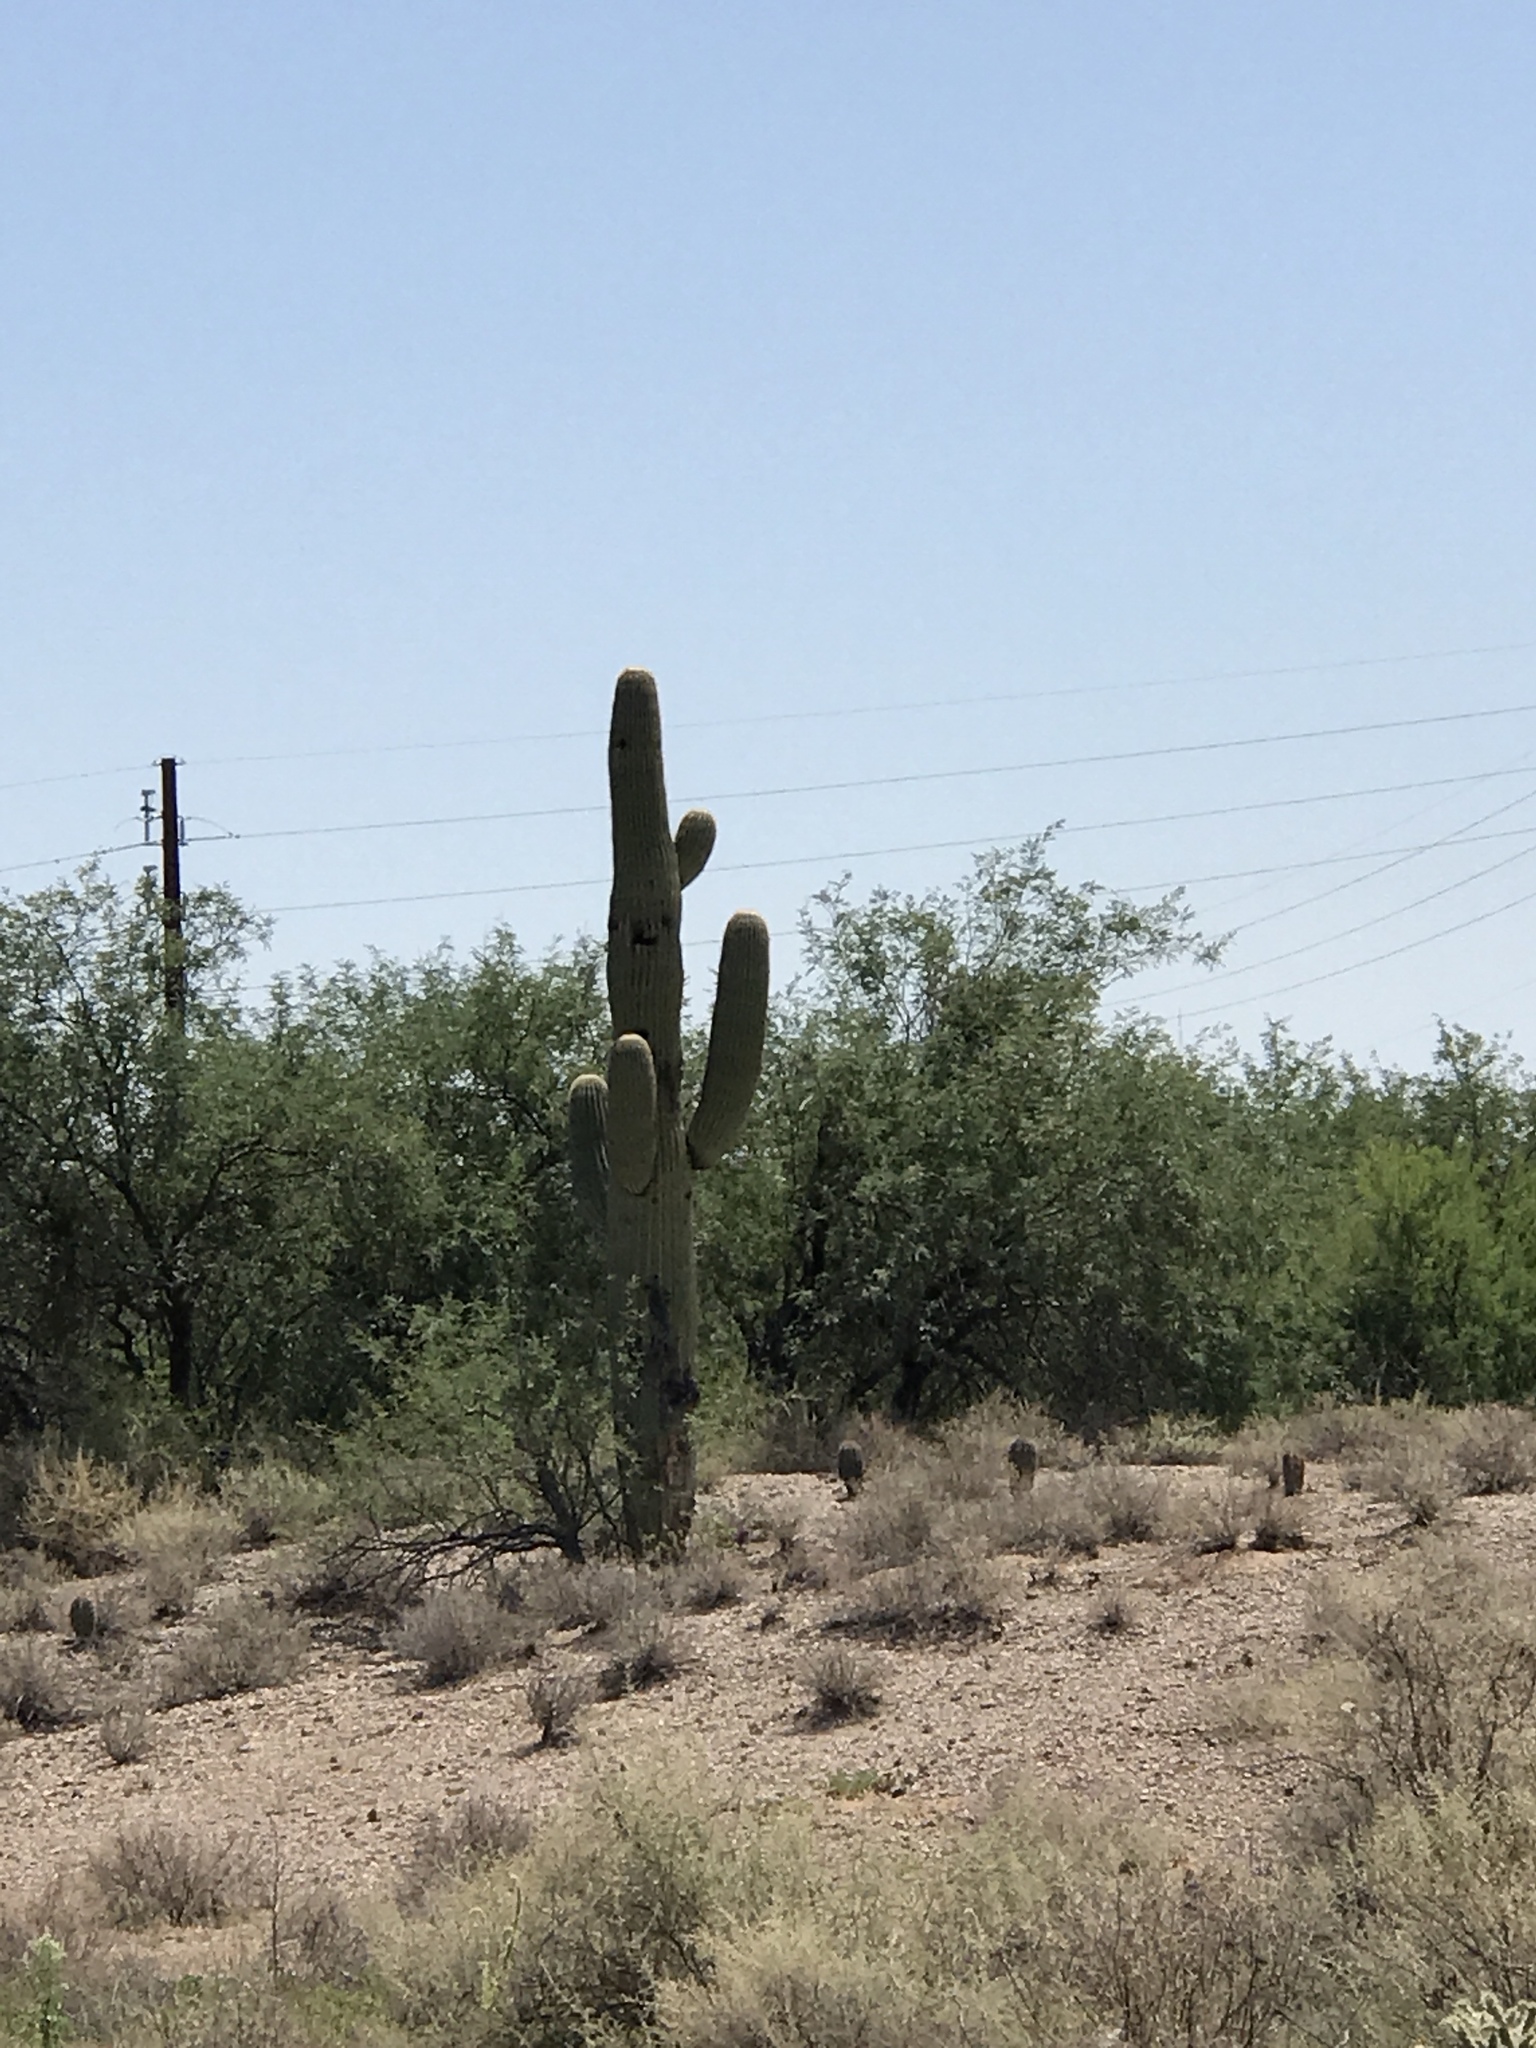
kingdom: Plantae
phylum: Tracheophyta
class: Magnoliopsida
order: Caryophyllales
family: Cactaceae
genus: Carnegiea
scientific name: Carnegiea gigantea
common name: Saguaro
